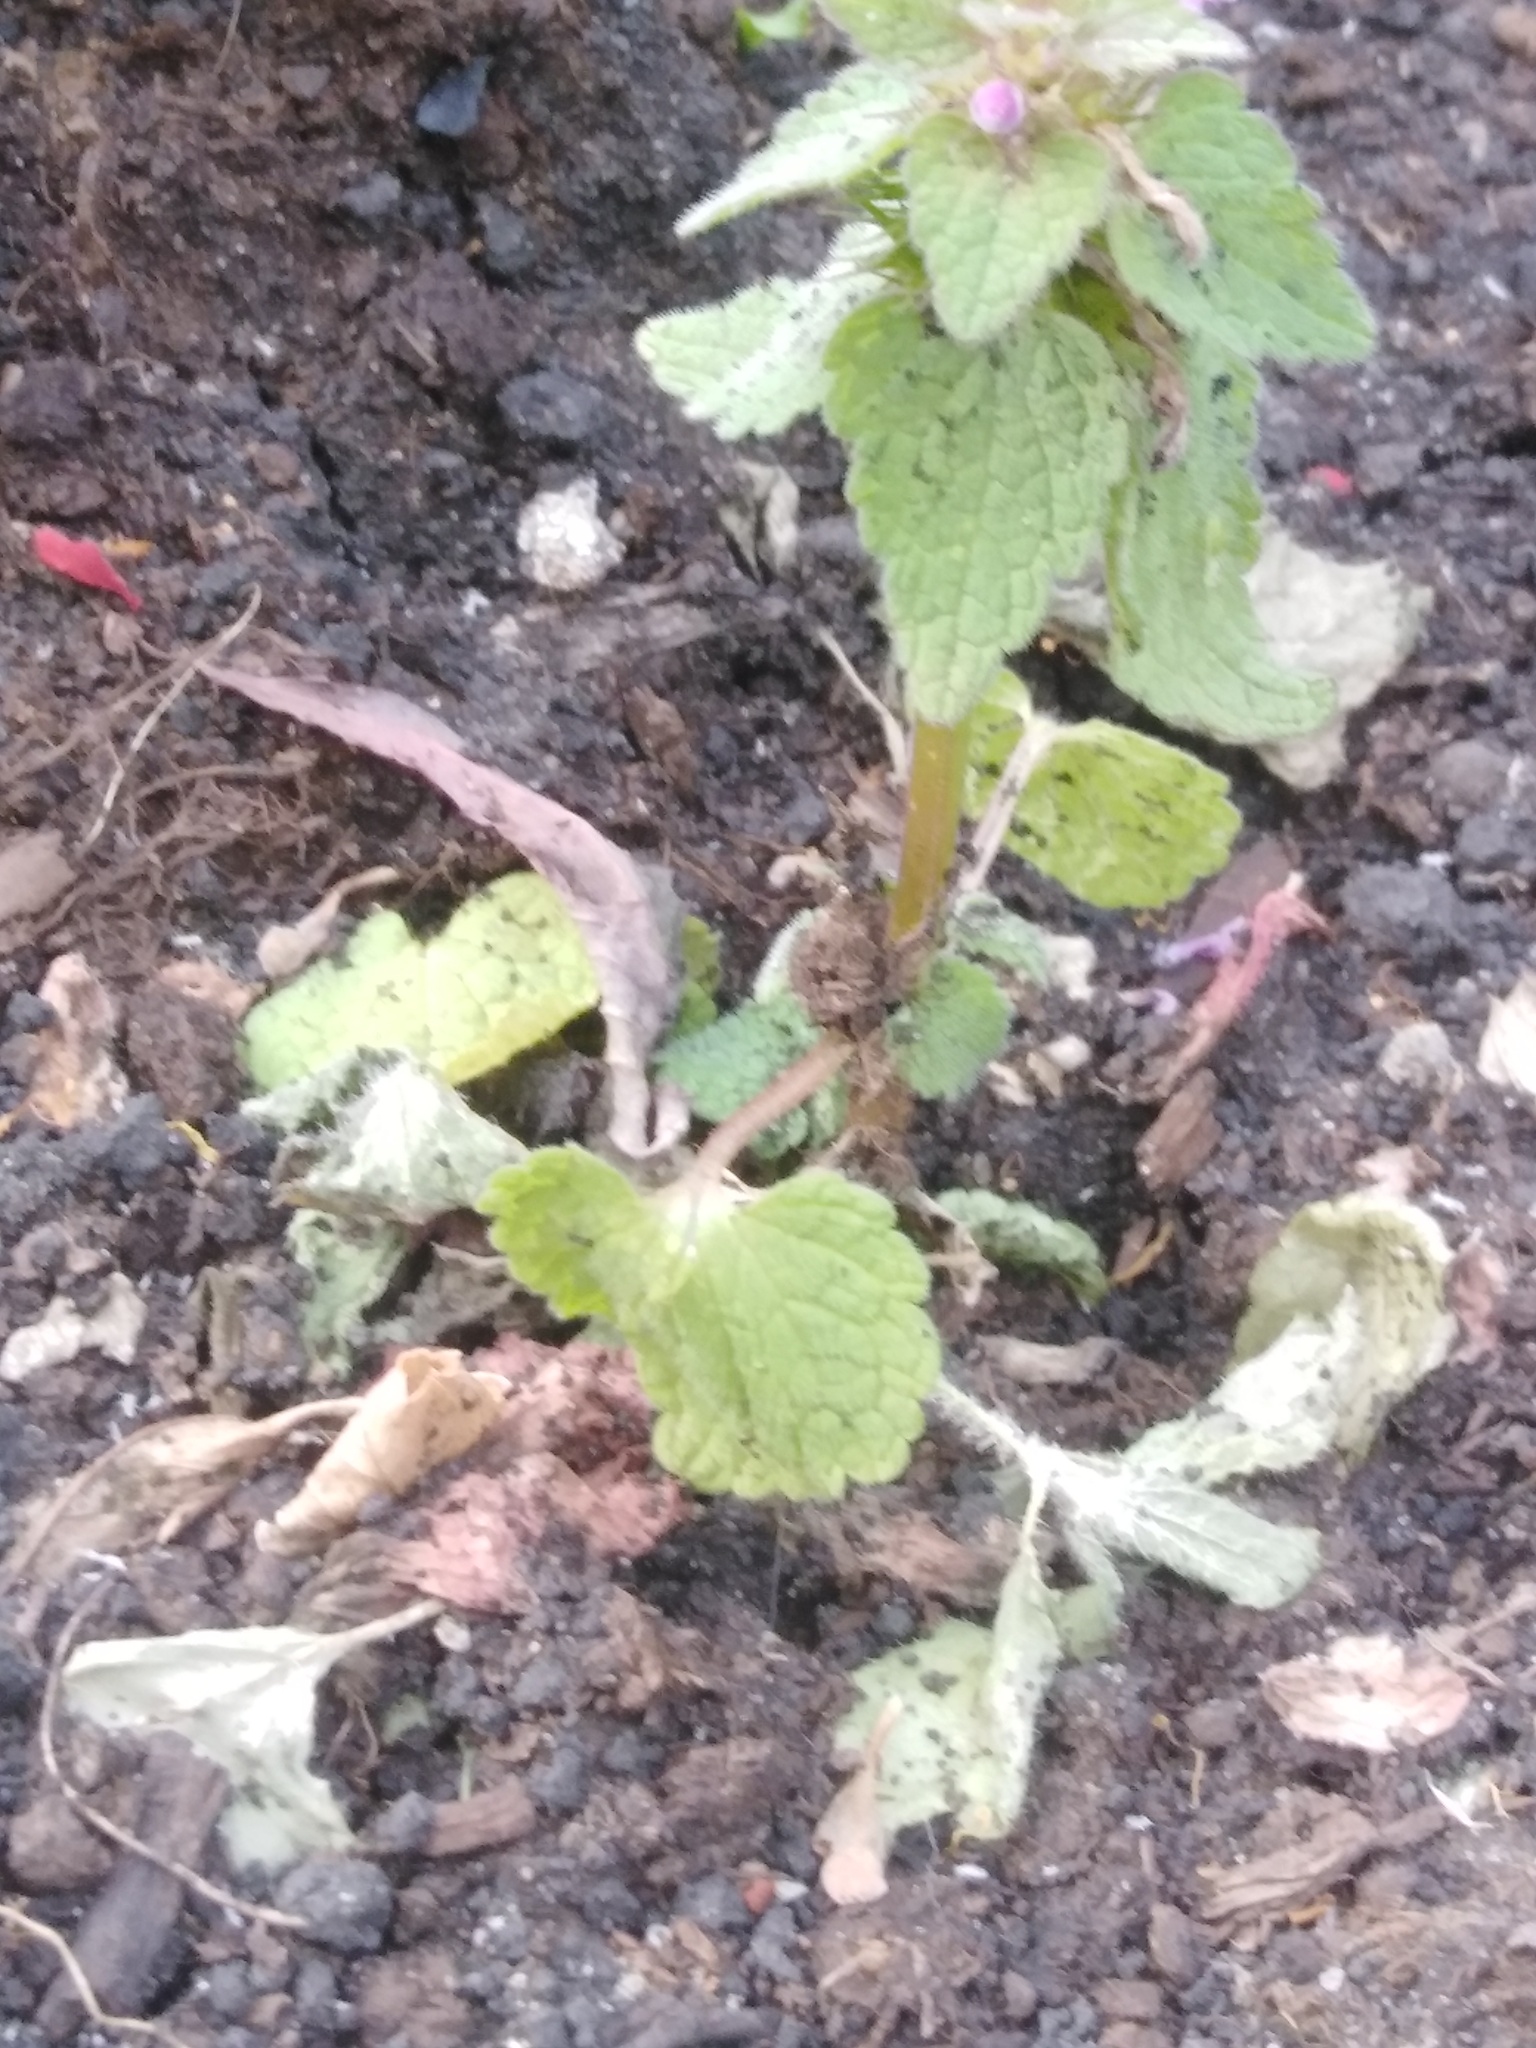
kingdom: Plantae
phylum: Tracheophyta
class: Magnoliopsida
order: Lamiales
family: Lamiaceae
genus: Lamium
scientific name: Lamium purpureum
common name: Red dead-nettle
